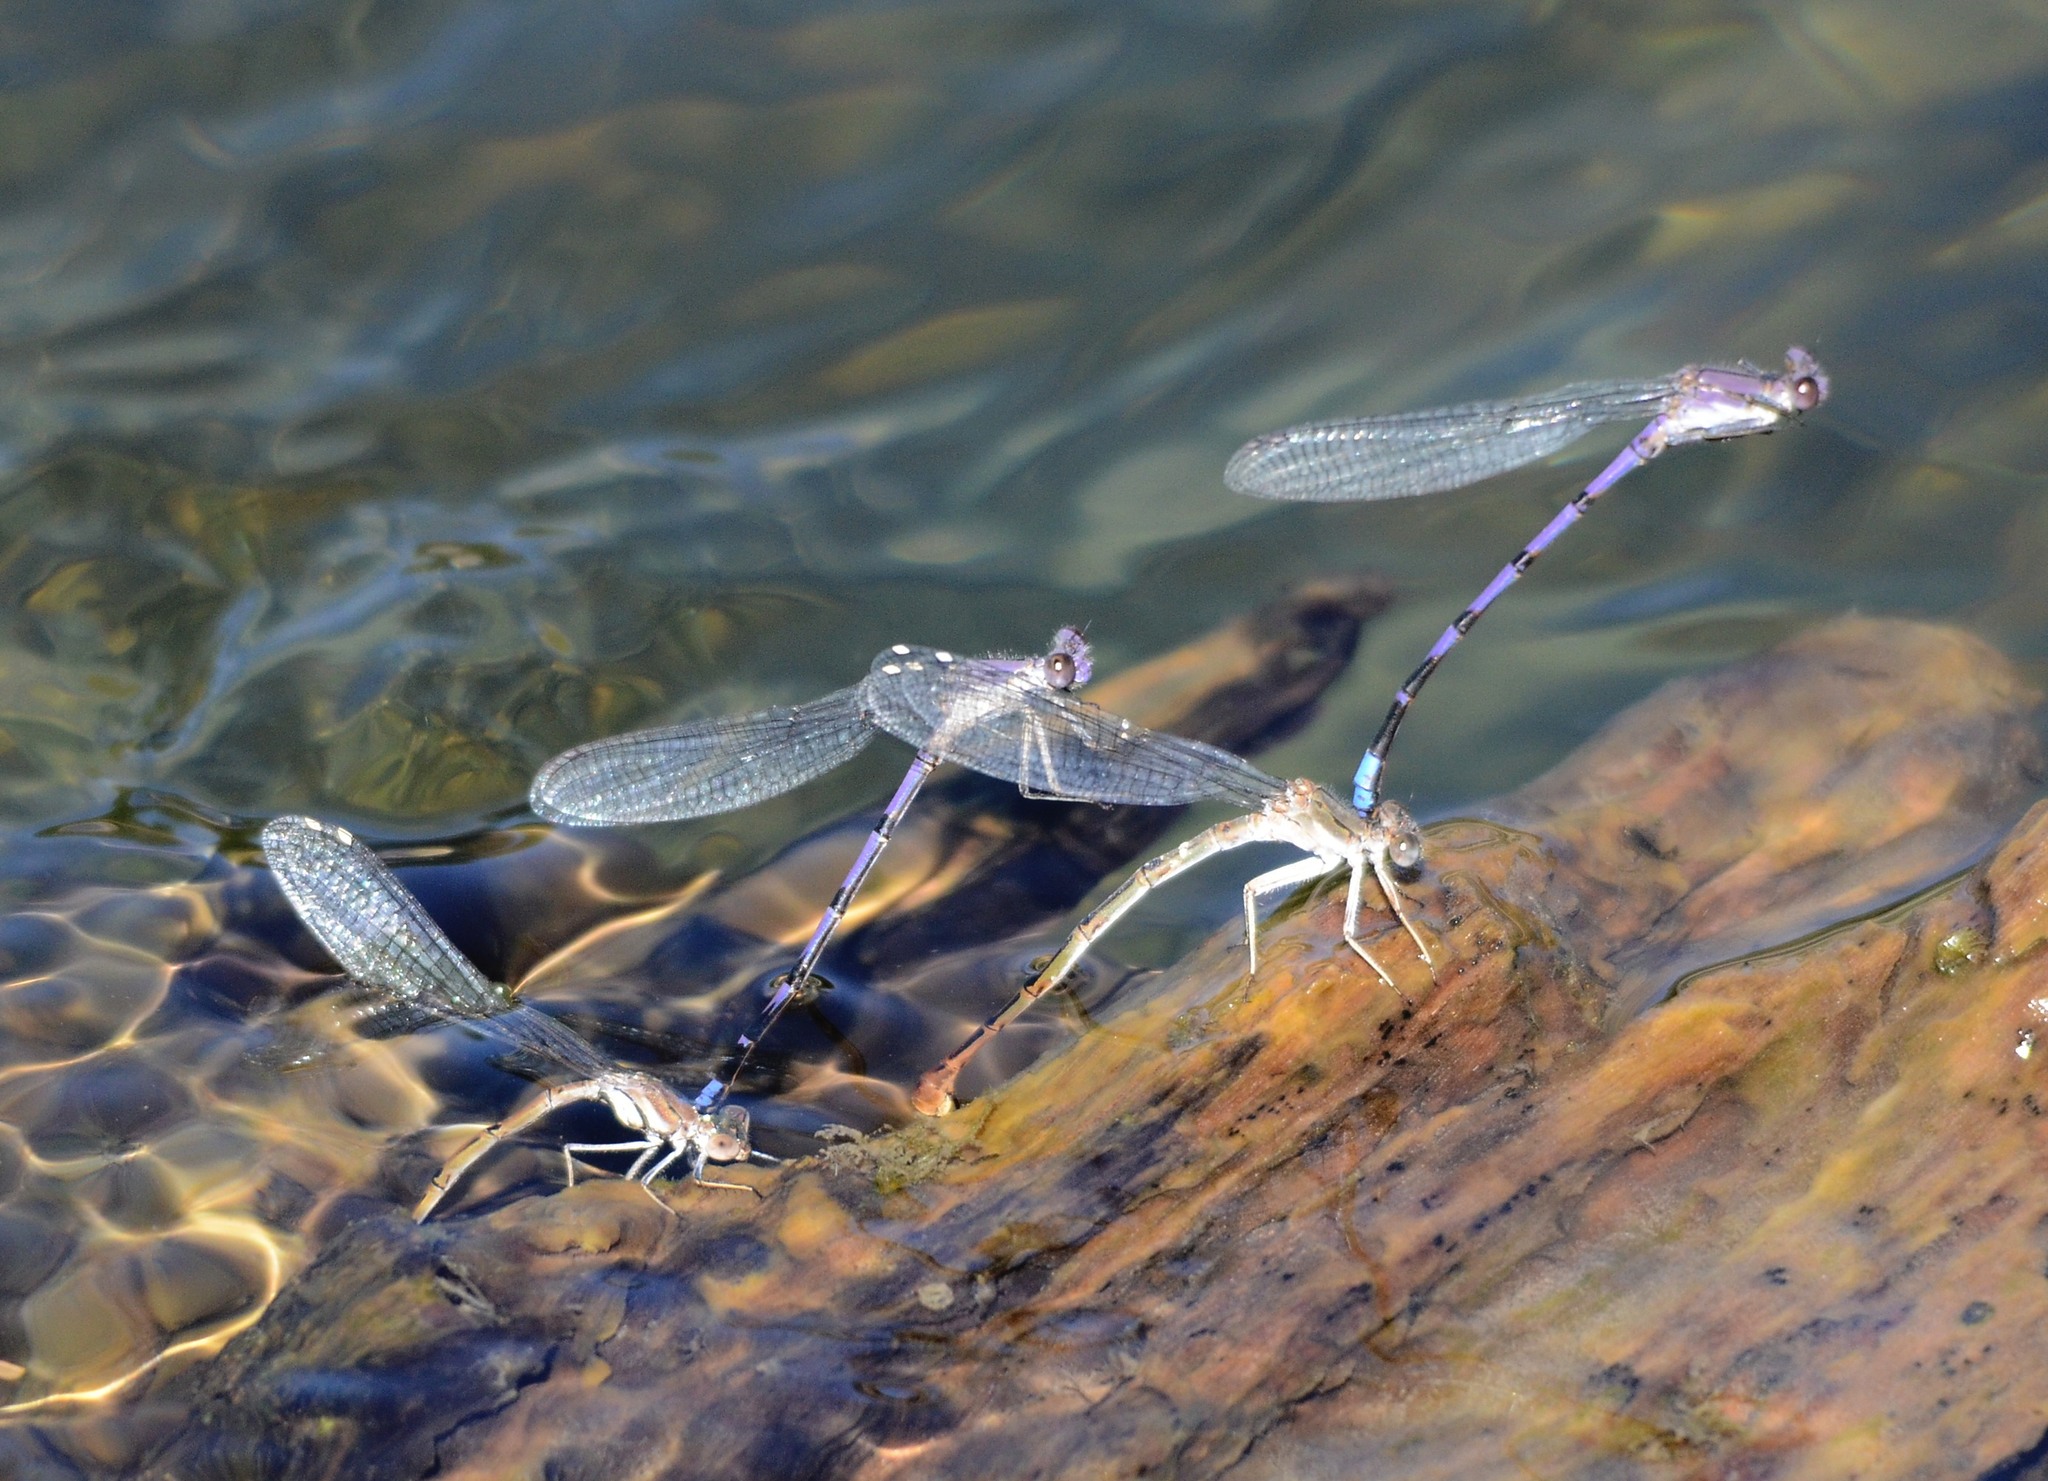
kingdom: Animalia
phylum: Arthropoda
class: Insecta
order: Odonata
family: Coenagrionidae
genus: Argia
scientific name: Argia agrioides
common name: California dancer
